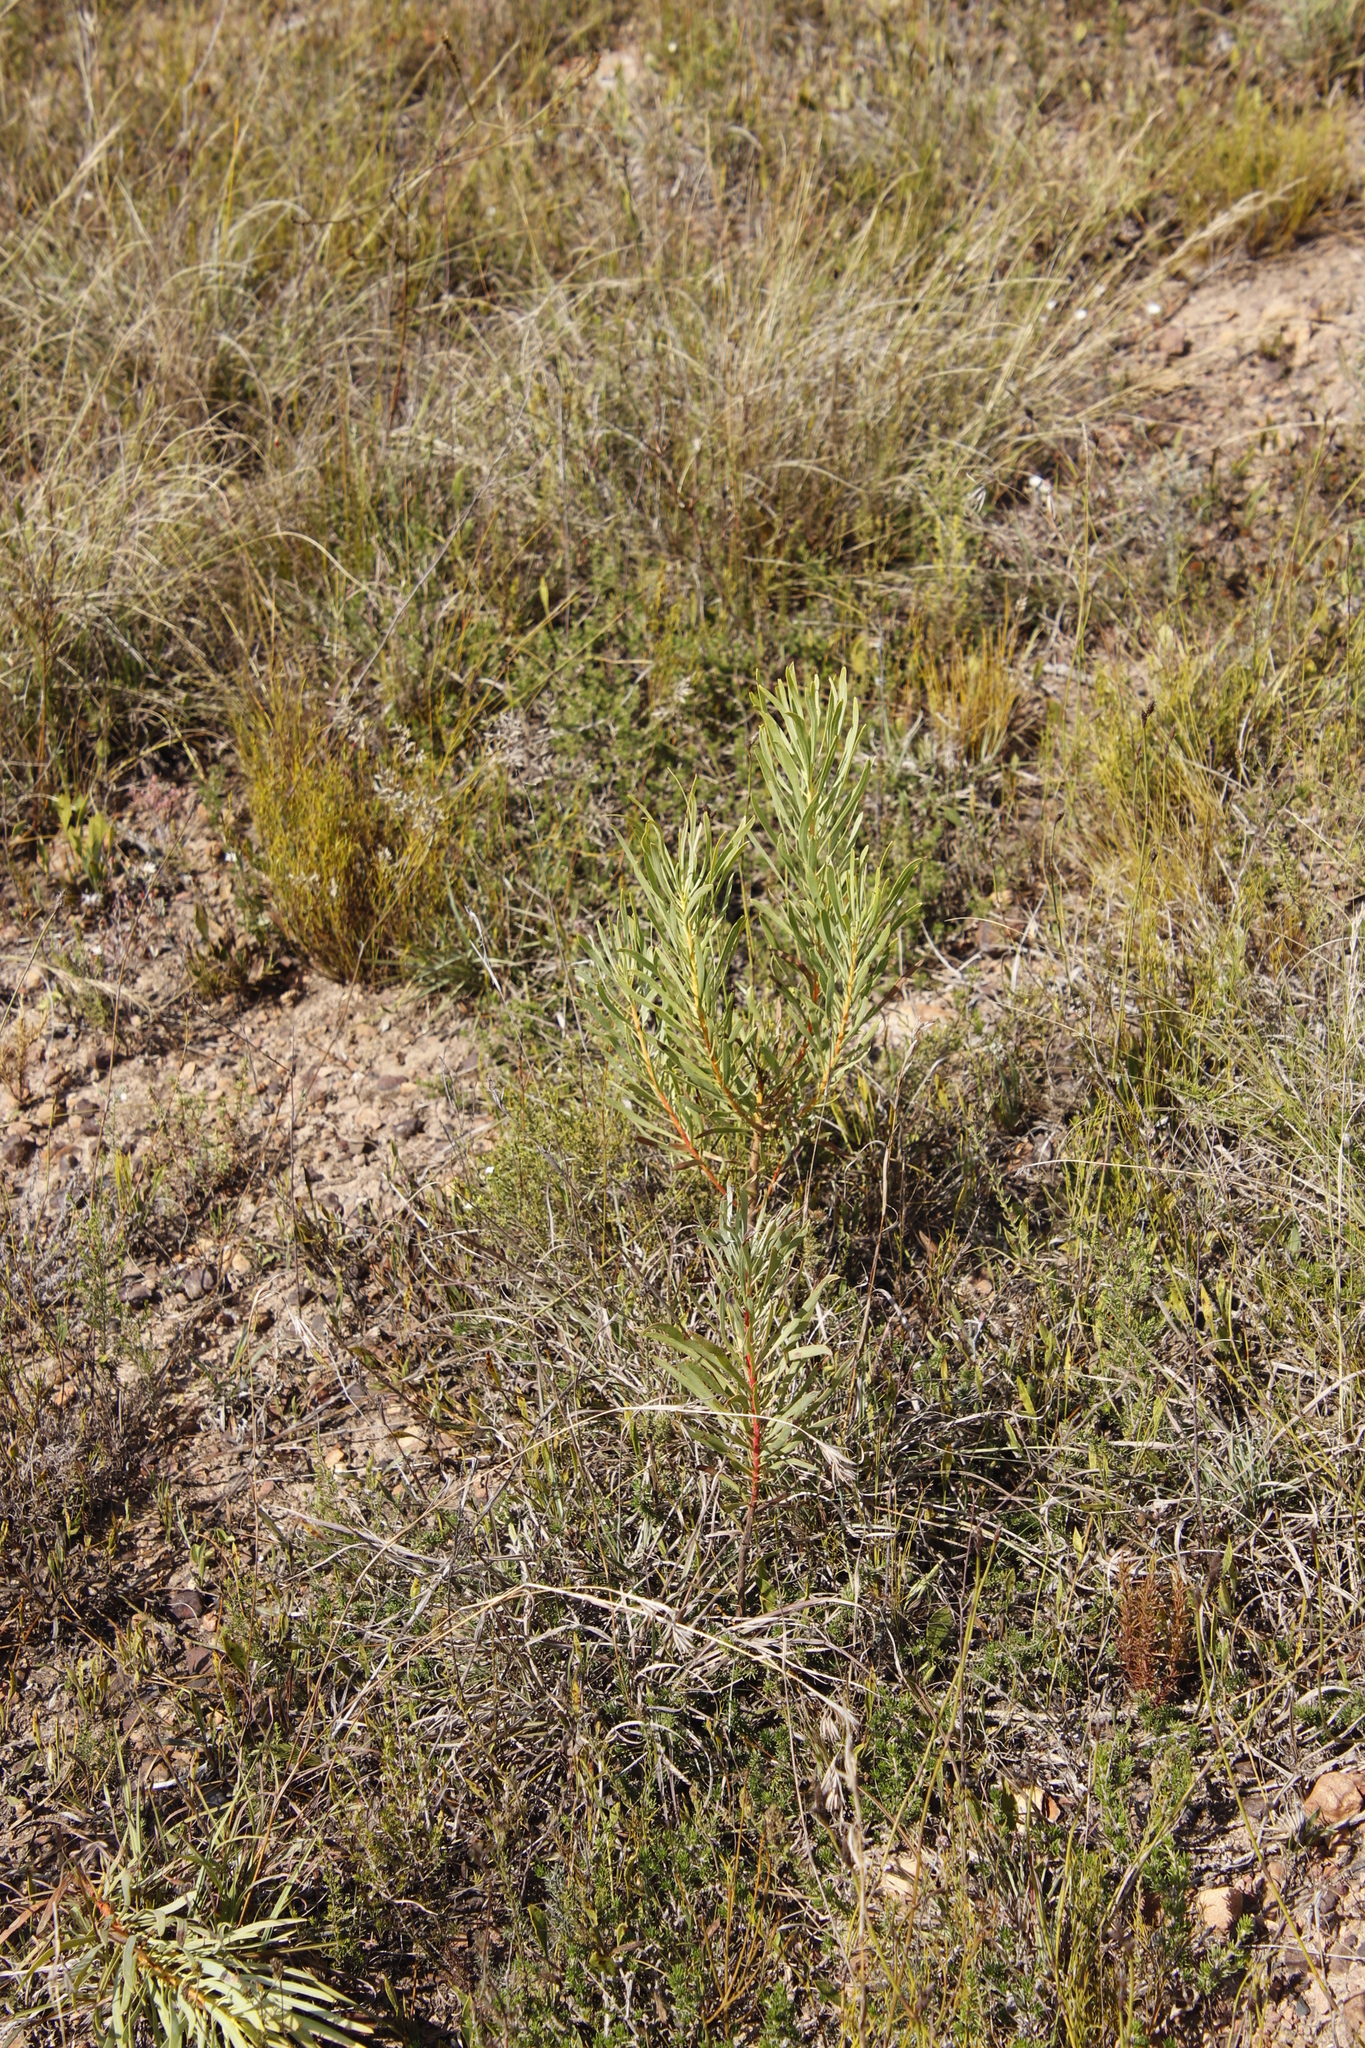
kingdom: Plantae
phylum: Tracheophyta
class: Magnoliopsida
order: Proteales
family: Proteaceae
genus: Protea
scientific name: Protea repens
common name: Sugarbush
